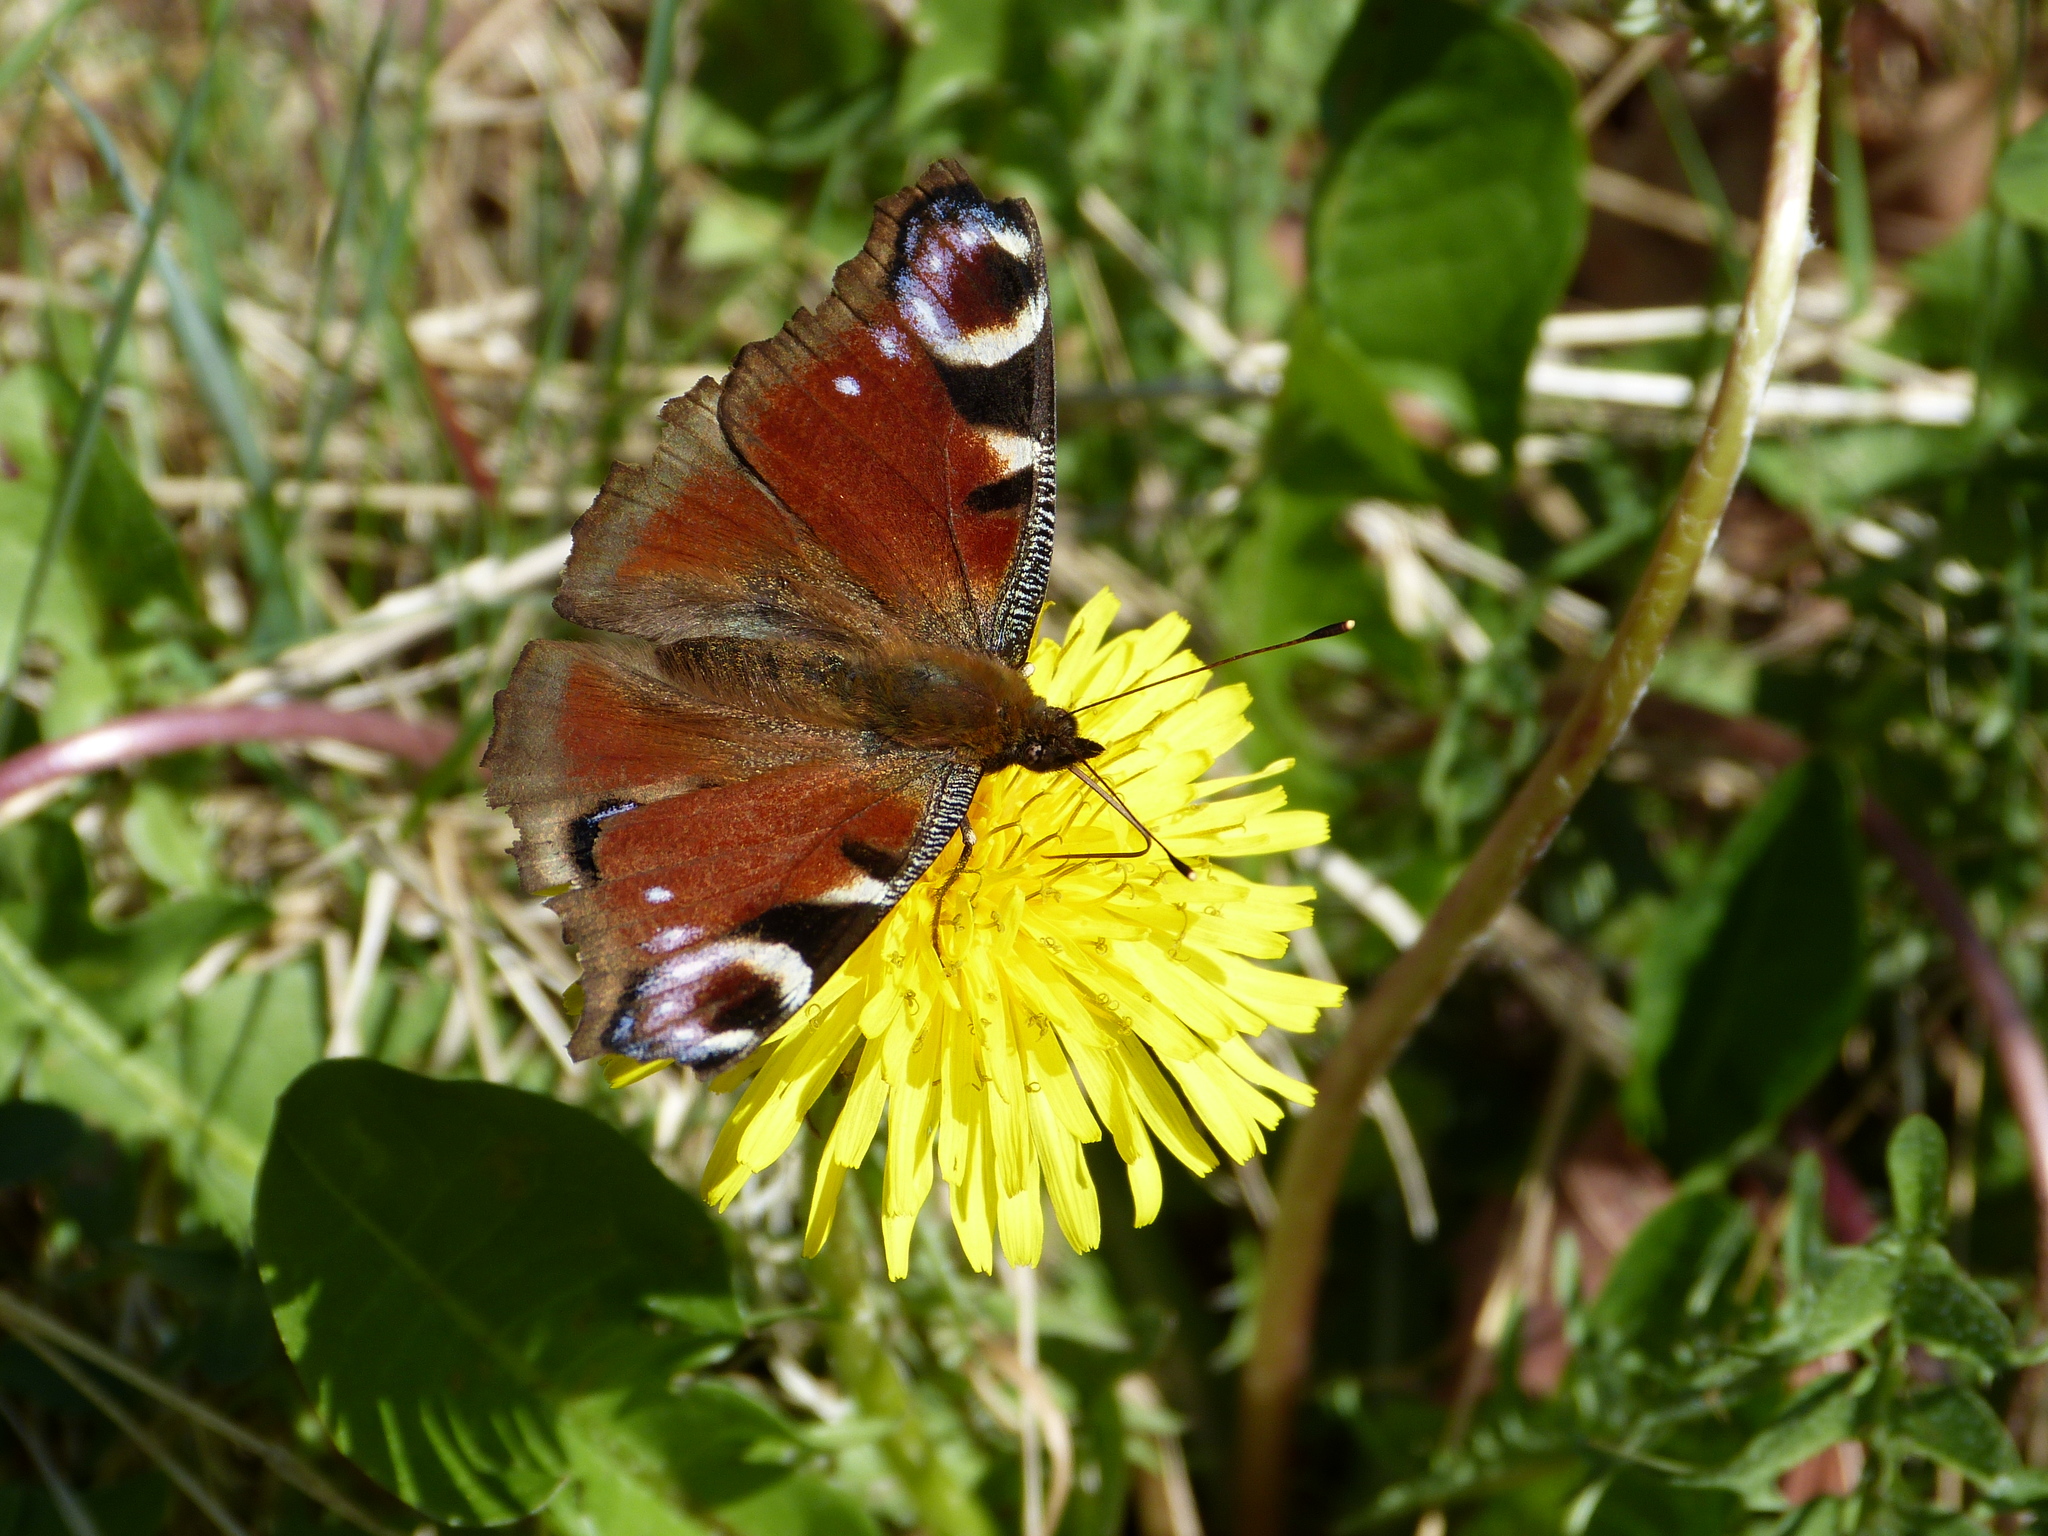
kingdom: Animalia
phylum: Arthropoda
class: Insecta
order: Lepidoptera
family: Nymphalidae
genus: Aglais
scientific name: Aglais io
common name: Peacock
